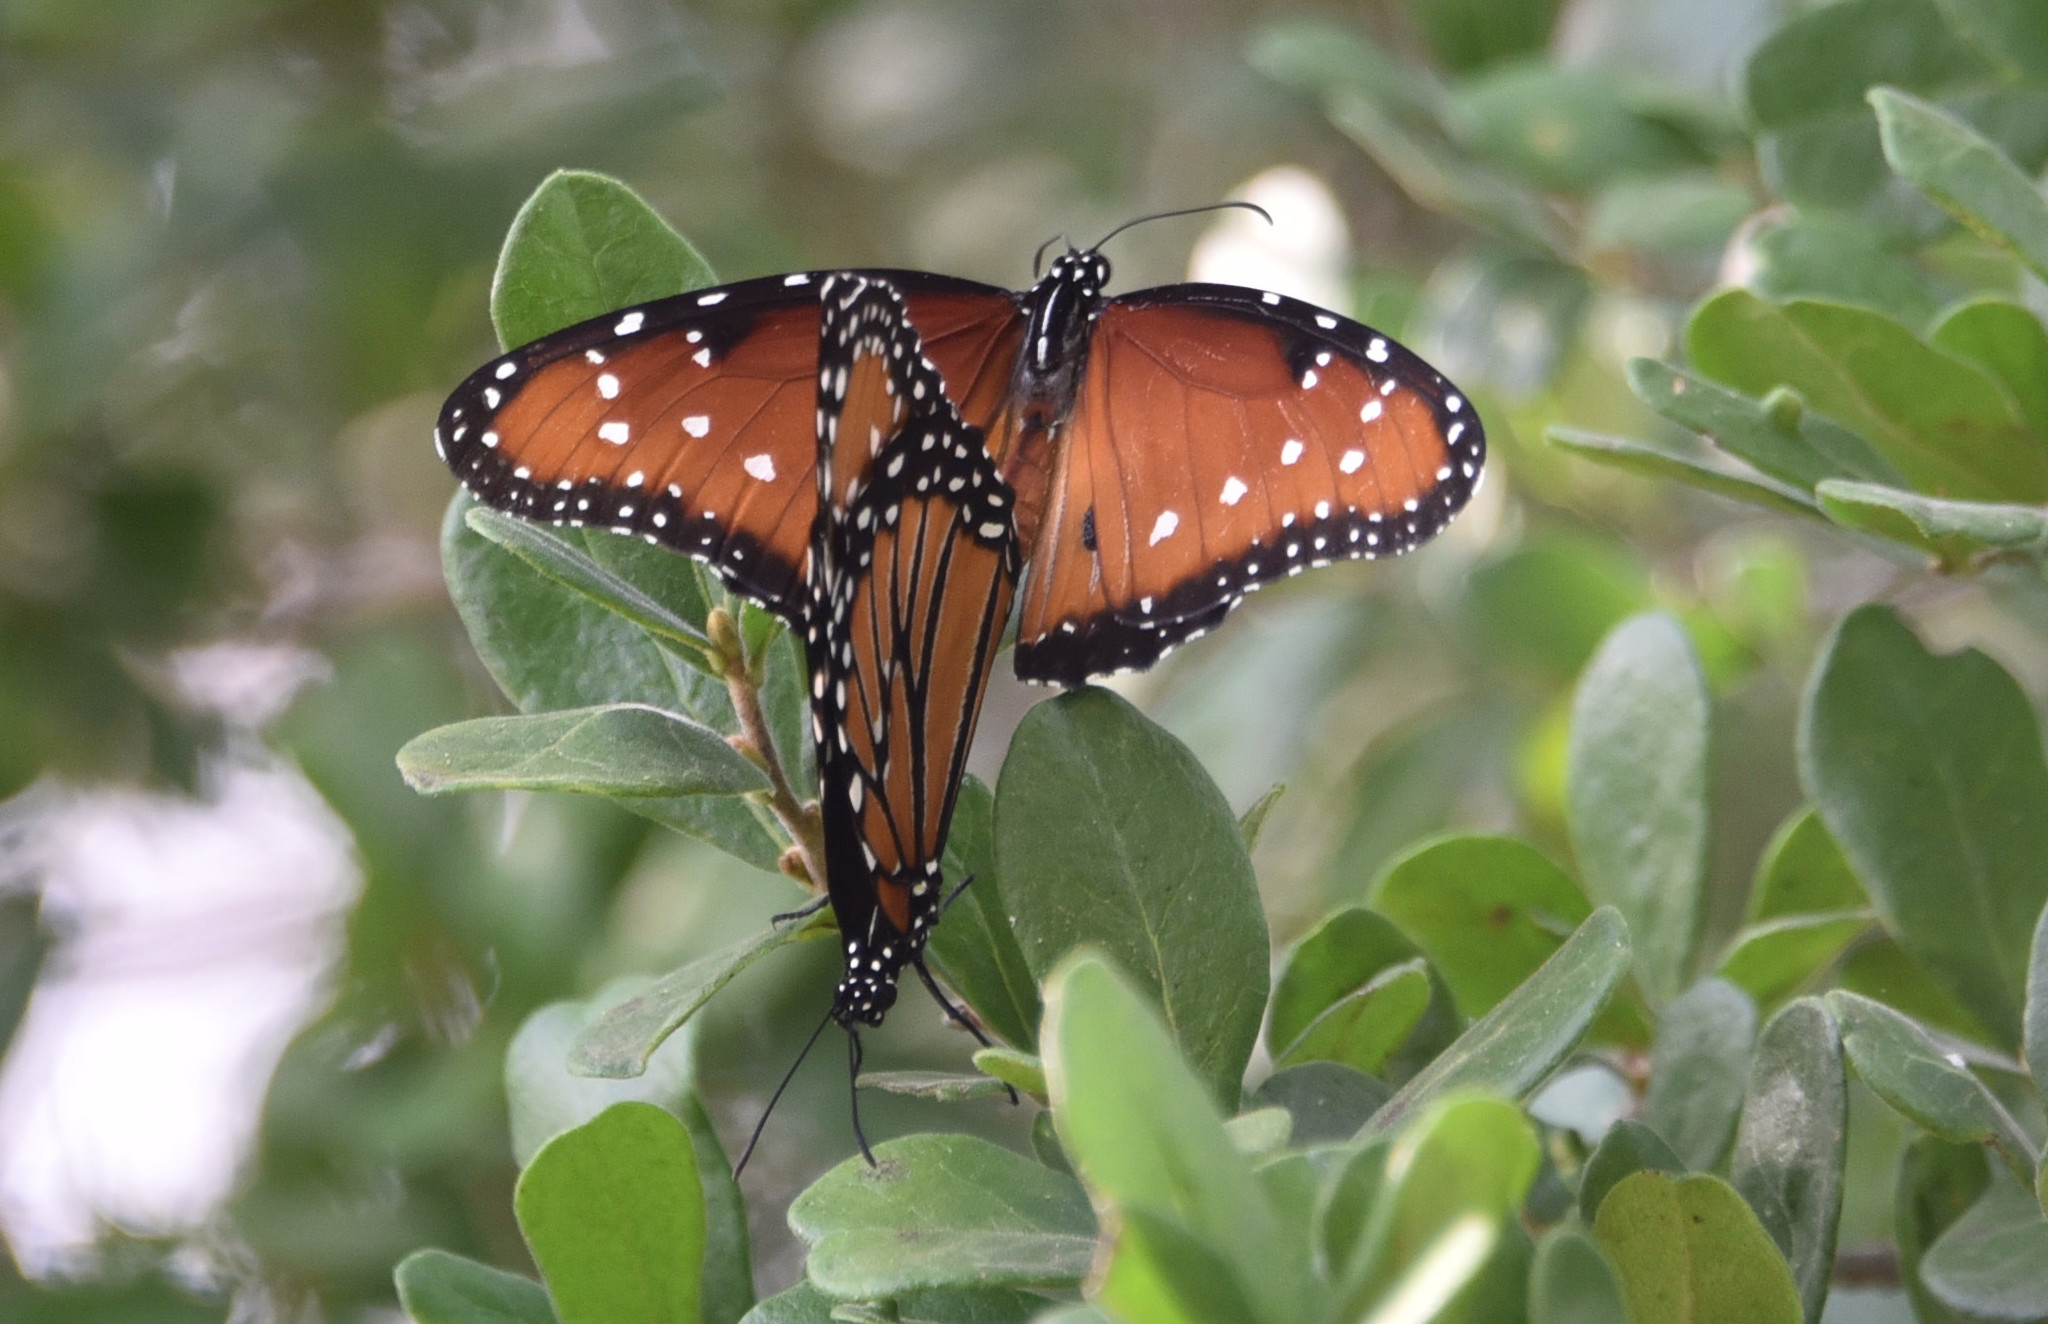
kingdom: Animalia
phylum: Arthropoda
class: Insecta
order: Lepidoptera
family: Nymphalidae
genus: Danaus
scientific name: Danaus gilippus
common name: Queen
